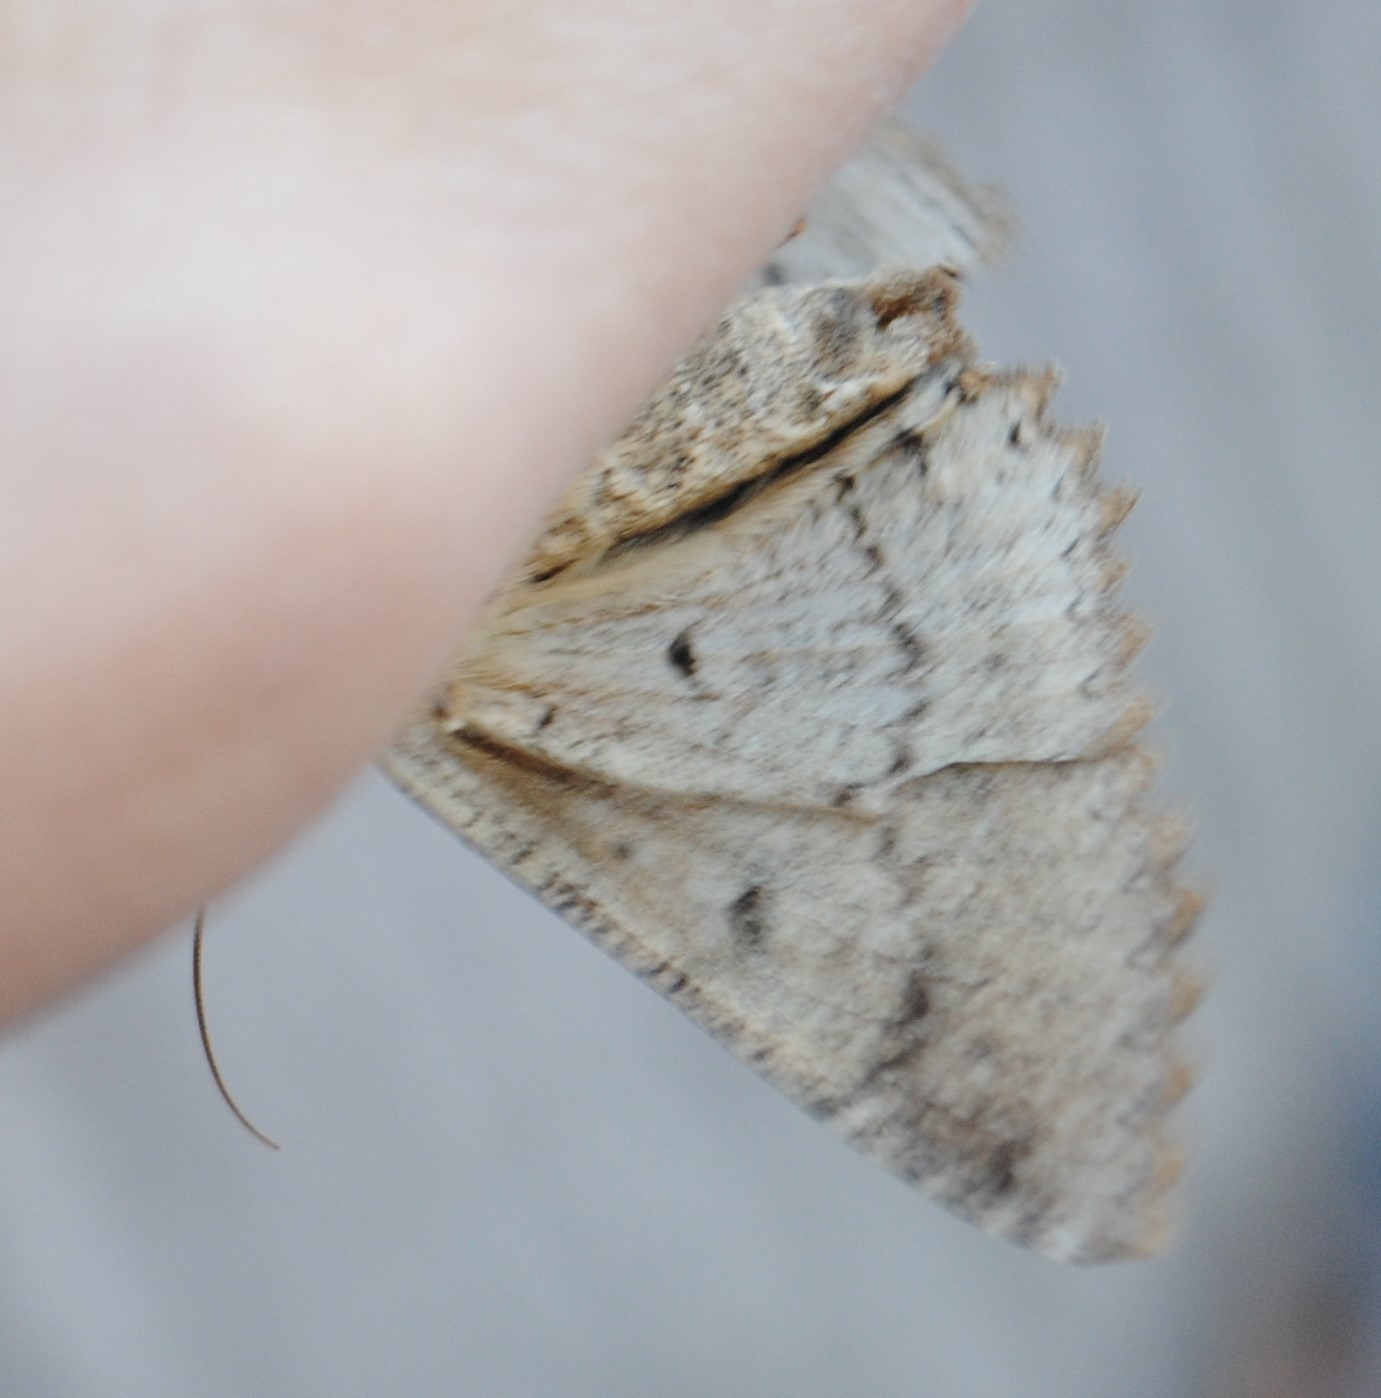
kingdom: Animalia
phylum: Arthropoda
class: Insecta
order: Lepidoptera
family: Erebidae
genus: Zale
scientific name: Zale lunata
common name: Lunate zale moth
